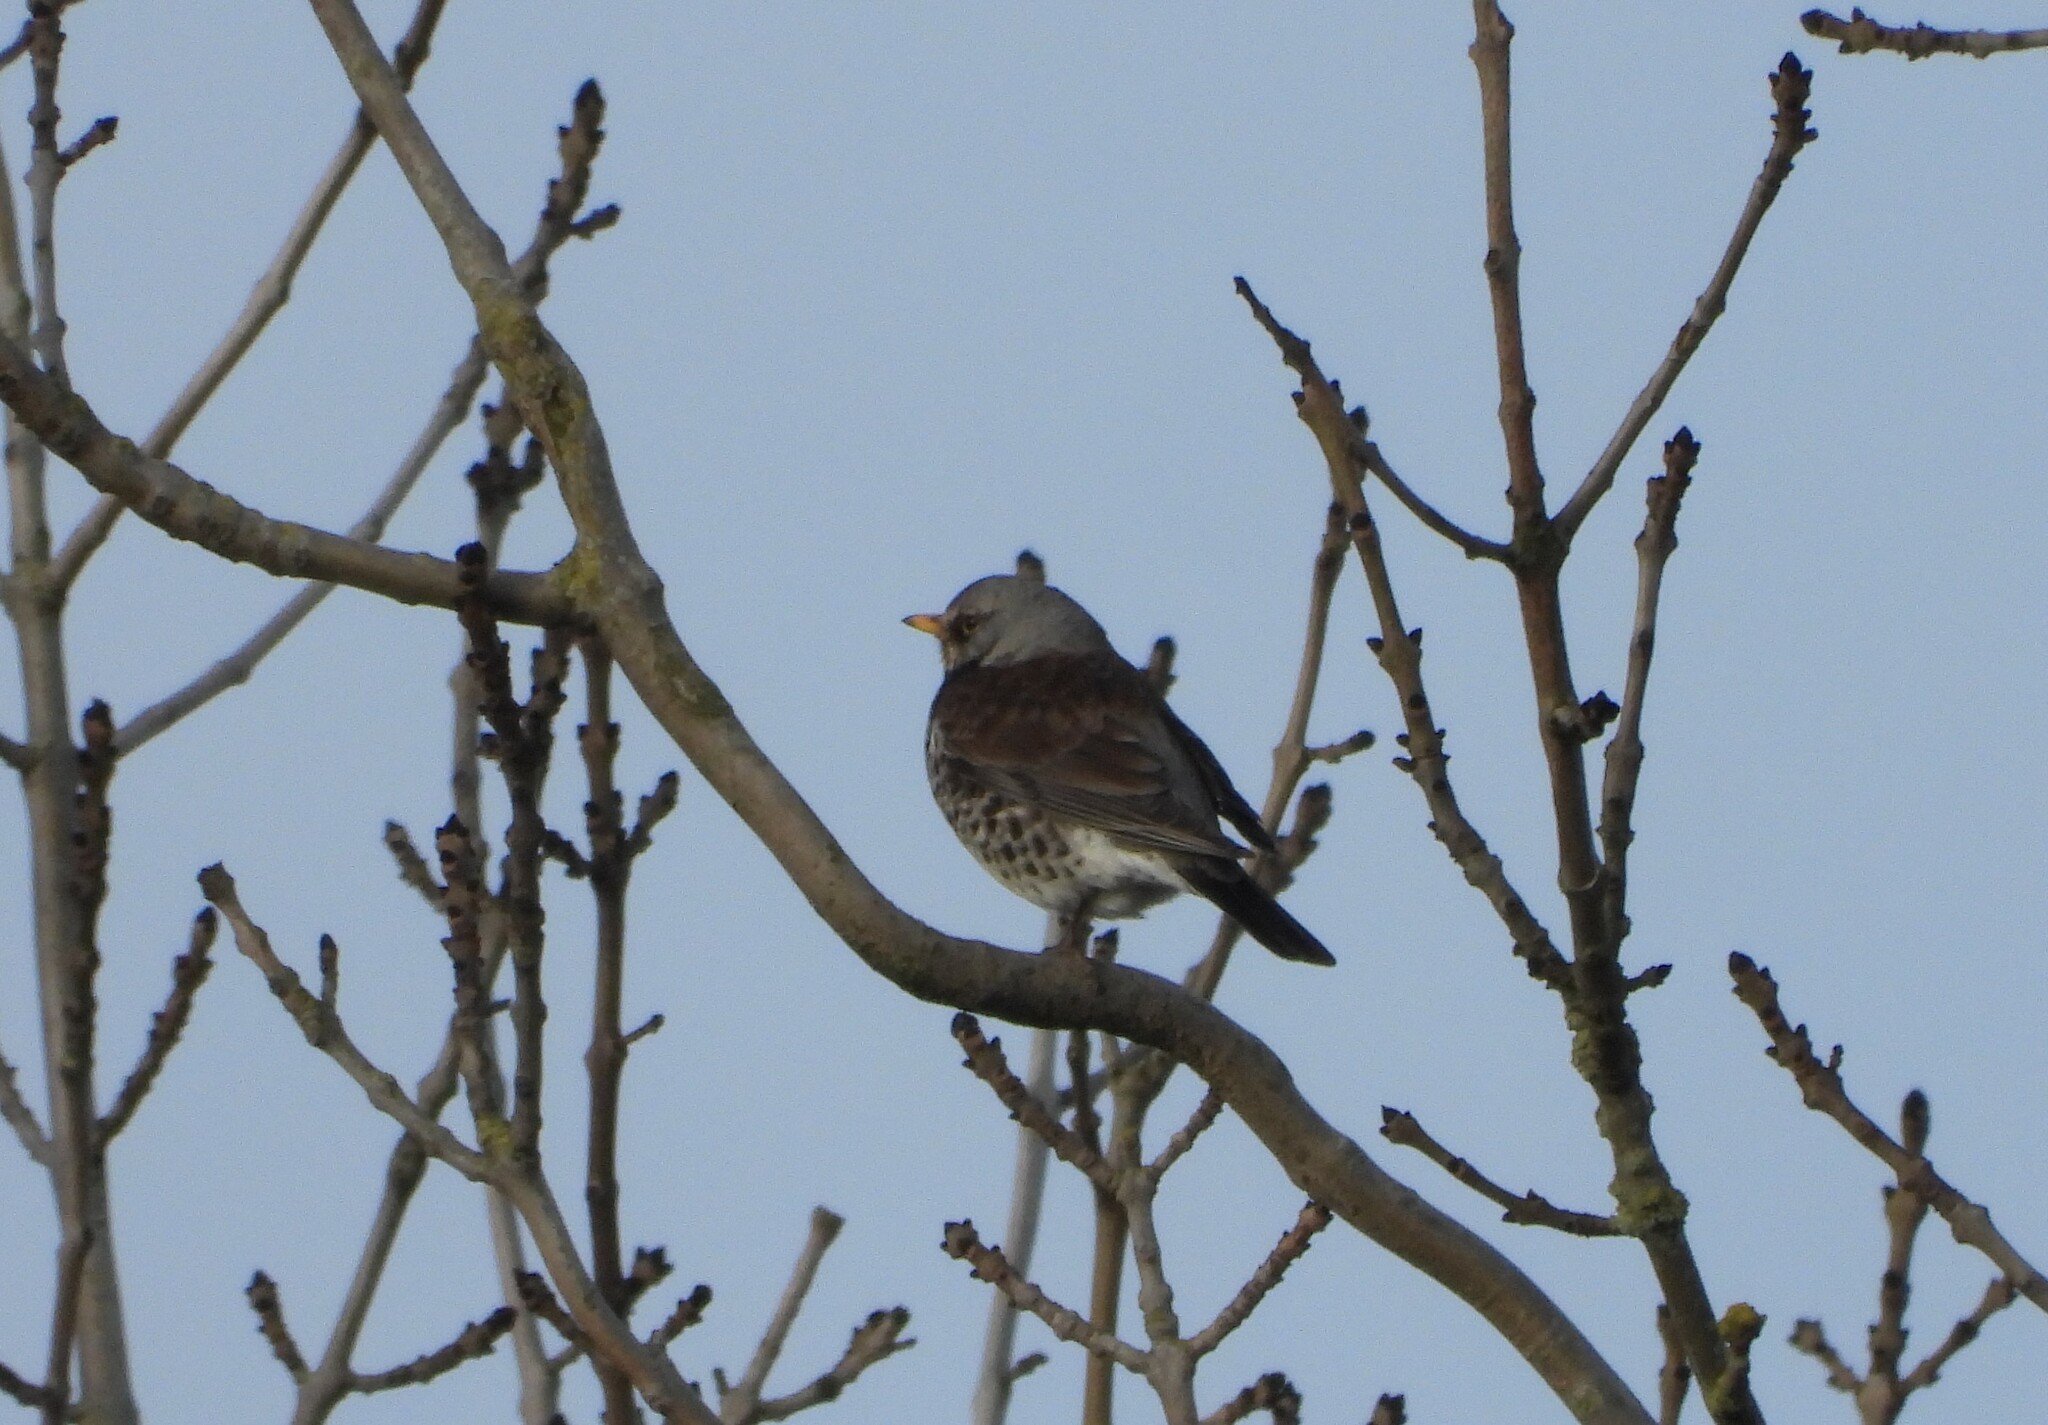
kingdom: Animalia
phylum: Chordata
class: Aves
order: Passeriformes
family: Turdidae
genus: Turdus
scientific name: Turdus pilaris
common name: Fieldfare
